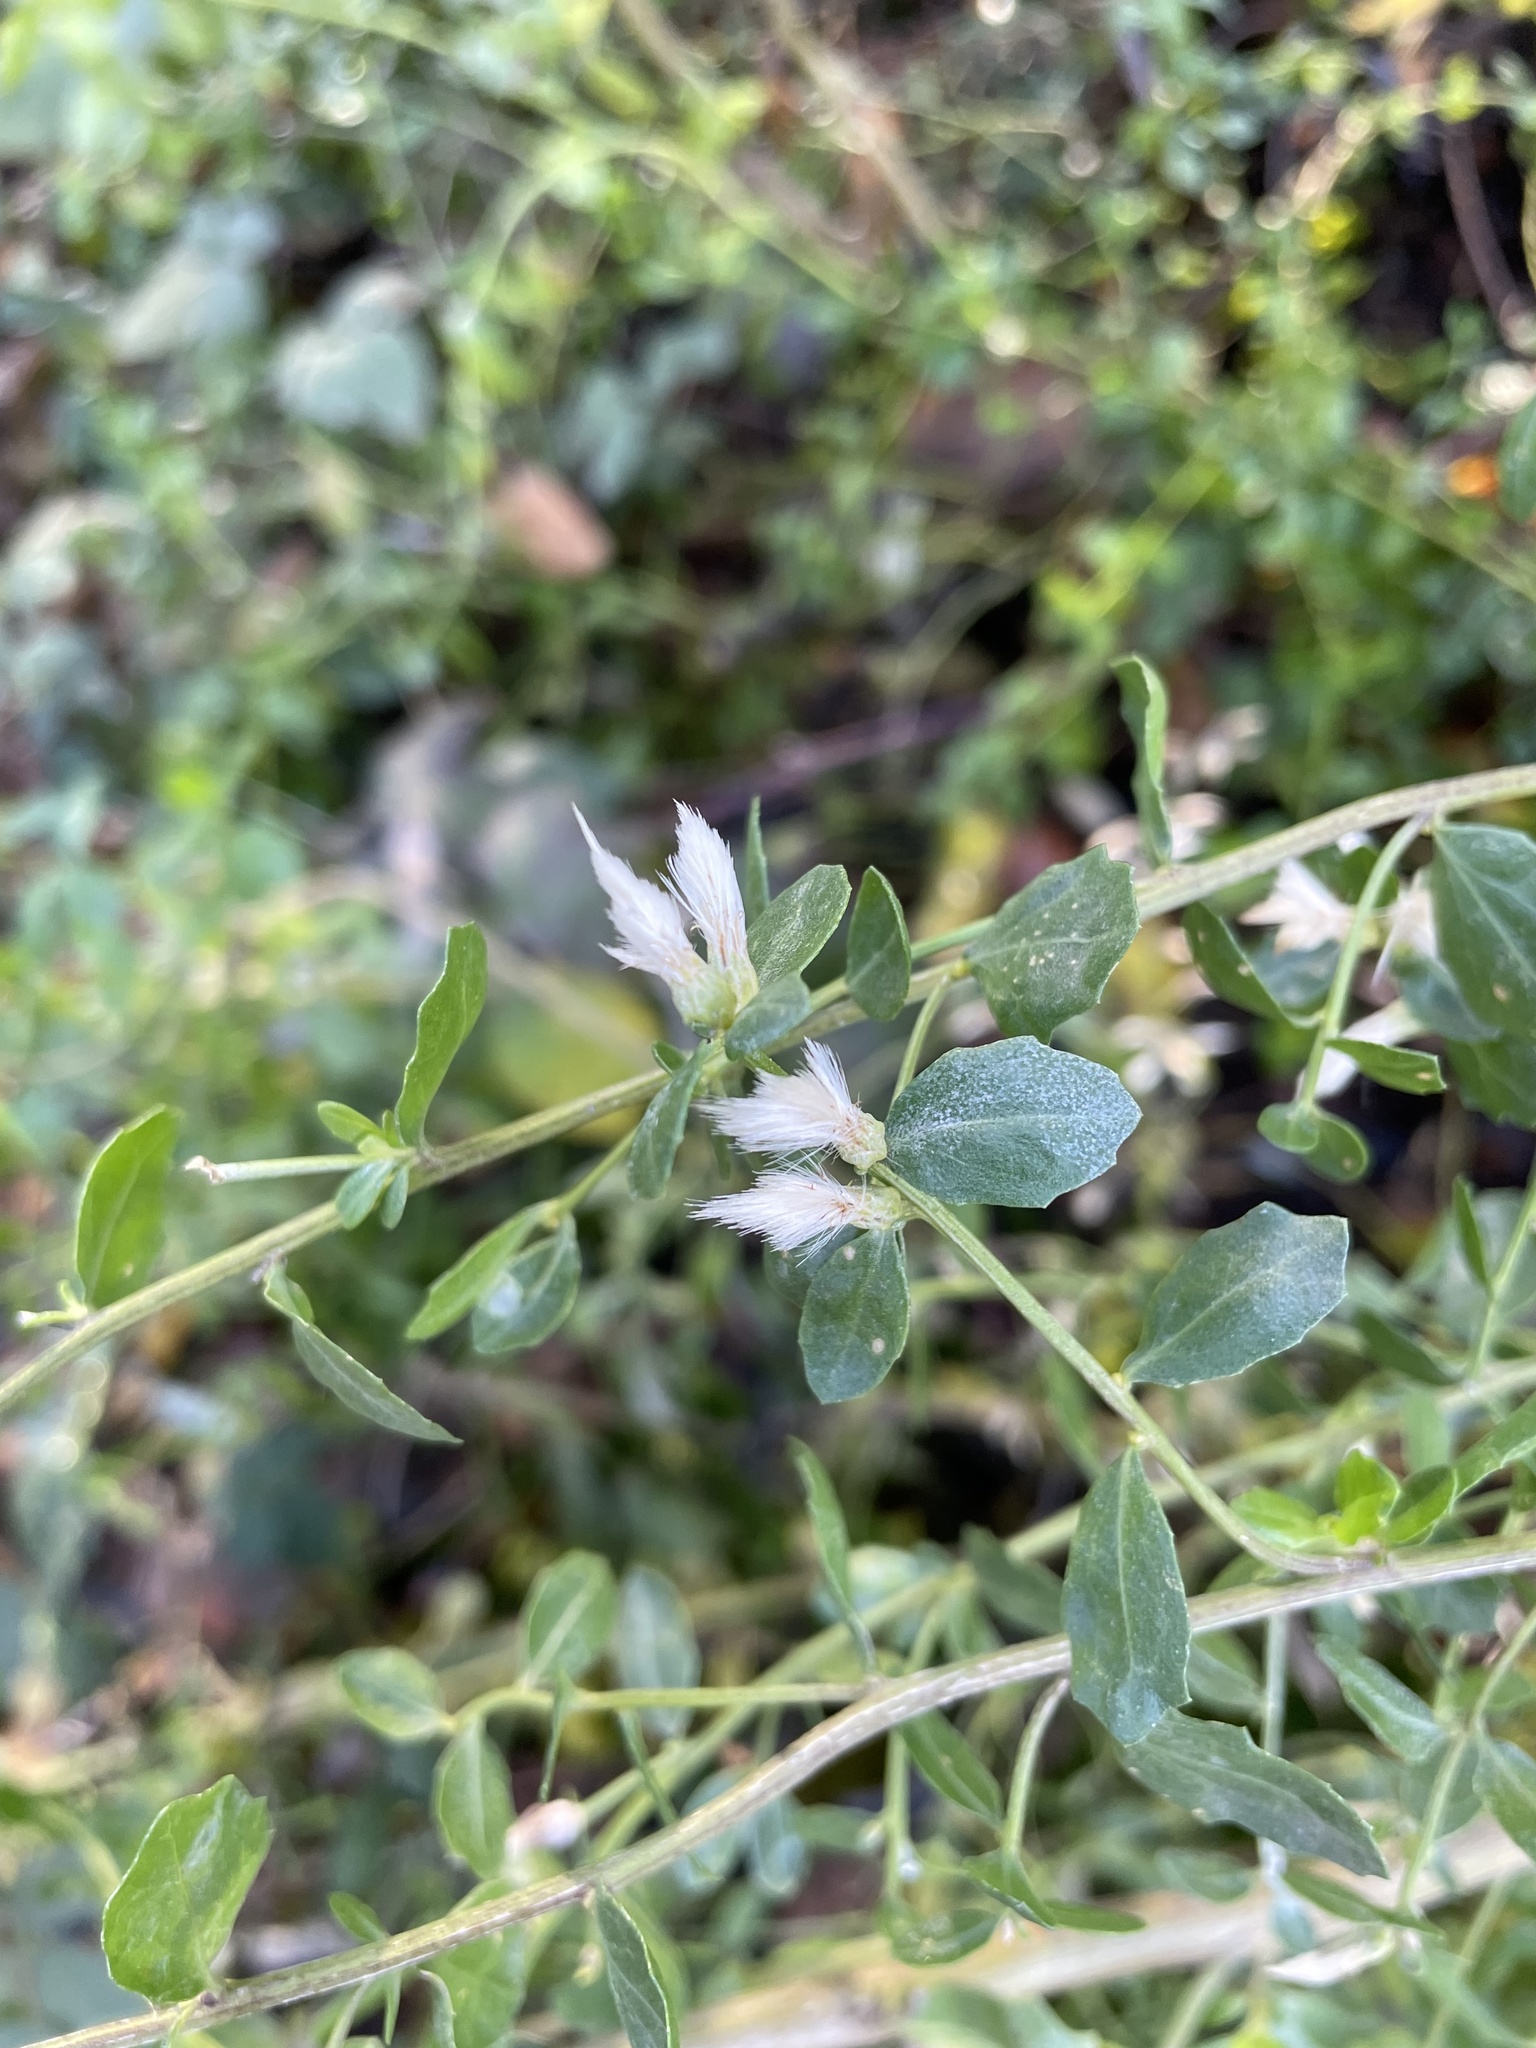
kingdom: Plantae
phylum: Tracheophyta
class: Magnoliopsida
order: Asterales
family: Asteraceae
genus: Baccharis
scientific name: Baccharis pilularis
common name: Coyotebrush
